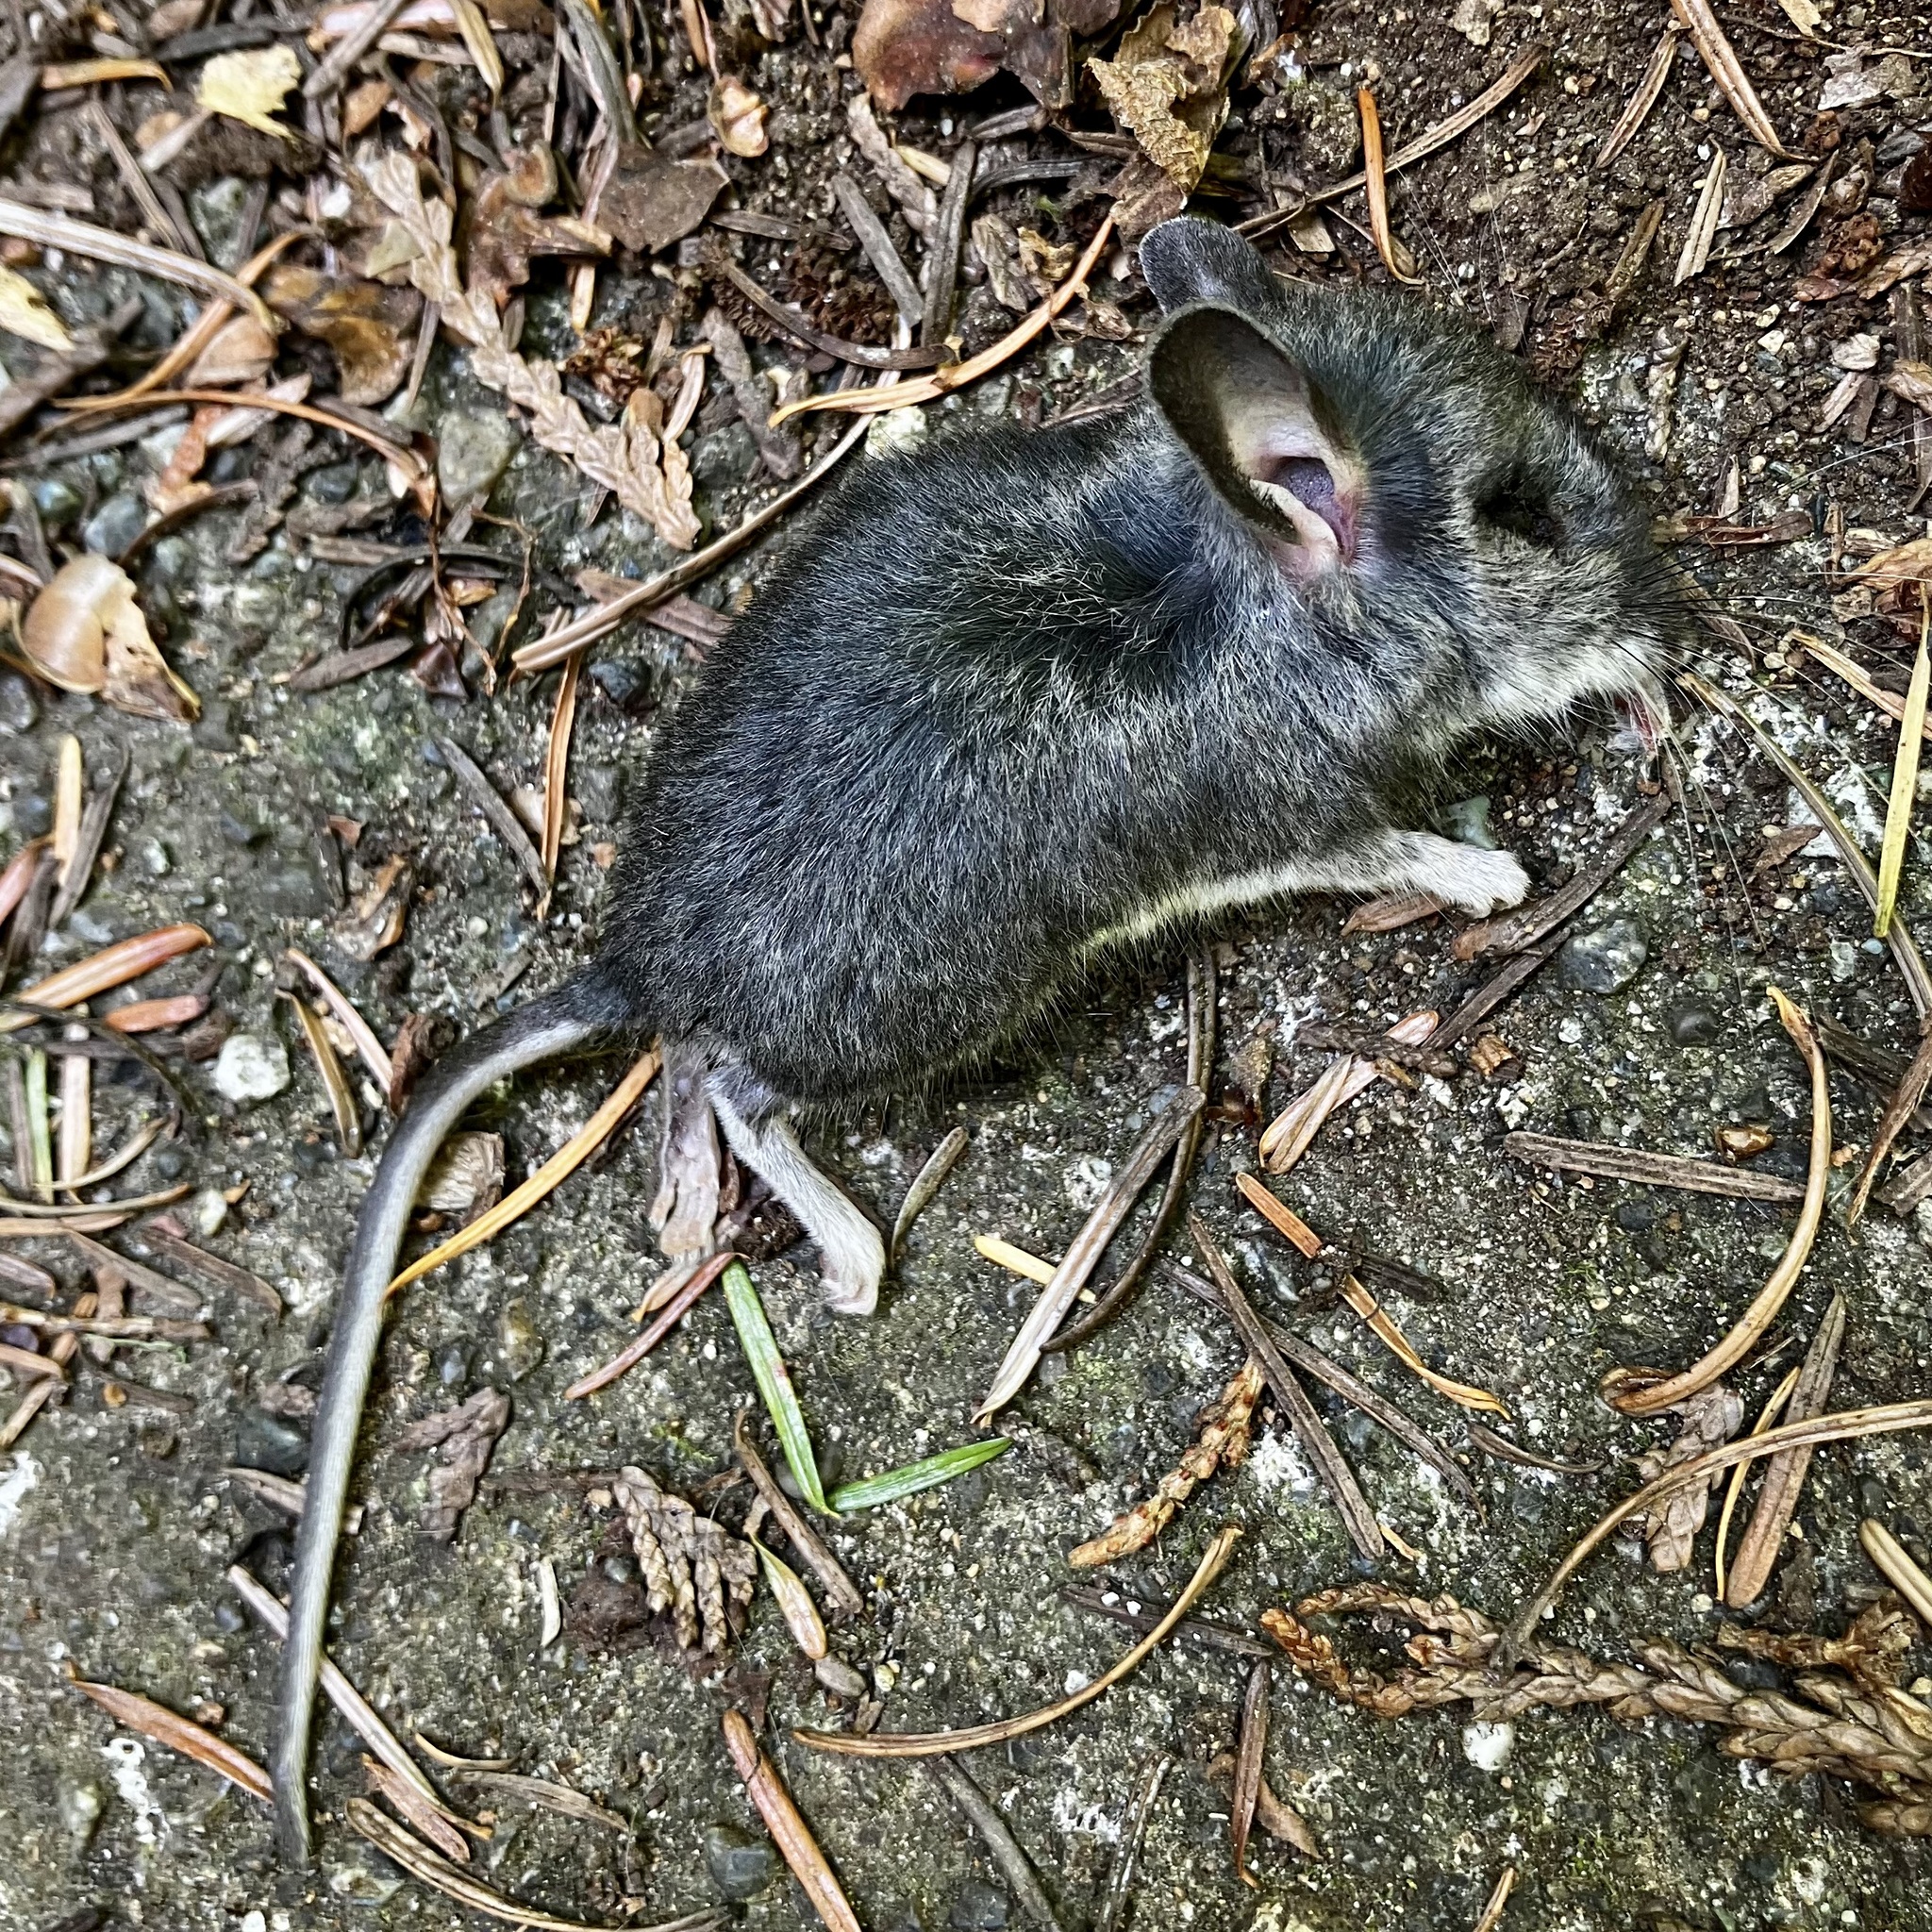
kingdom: Animalia
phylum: Chordata
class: Mammalia
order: Rodentia
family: Cricetidae
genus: Peromyscus
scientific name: Peromyscus maniculatus
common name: Deer mouse
